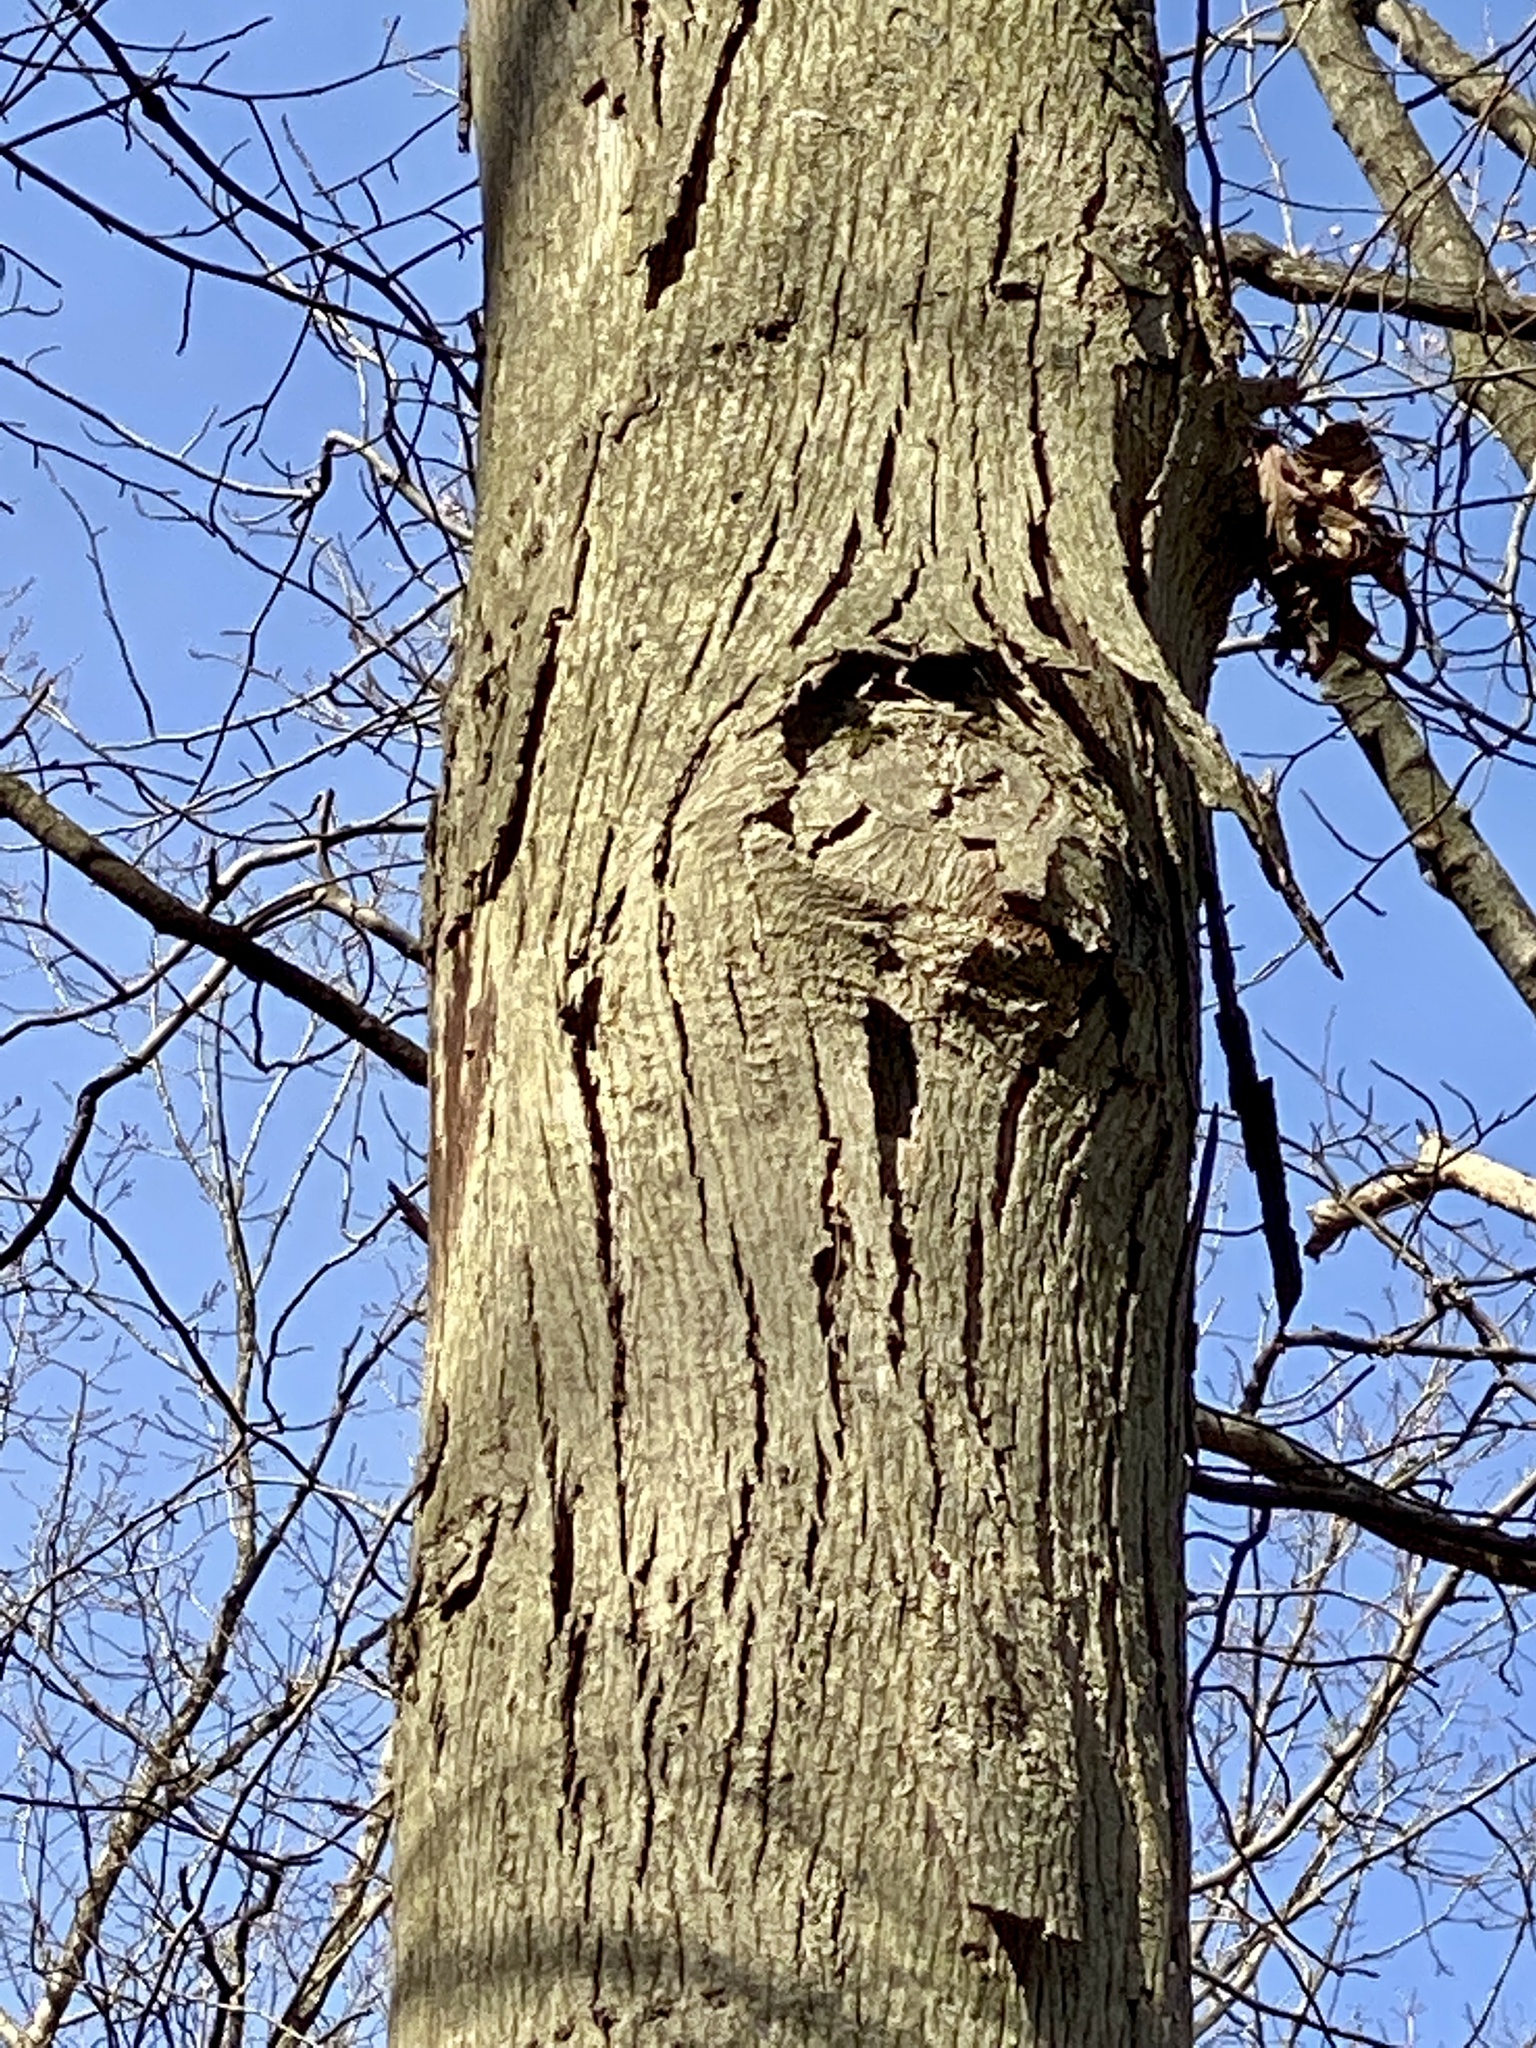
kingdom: Plantae
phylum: Tracheophyta
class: Magnoliopsida
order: Fagales
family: Juglandaceae
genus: Carya
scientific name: Carya ovata
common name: Shagbark hickory
